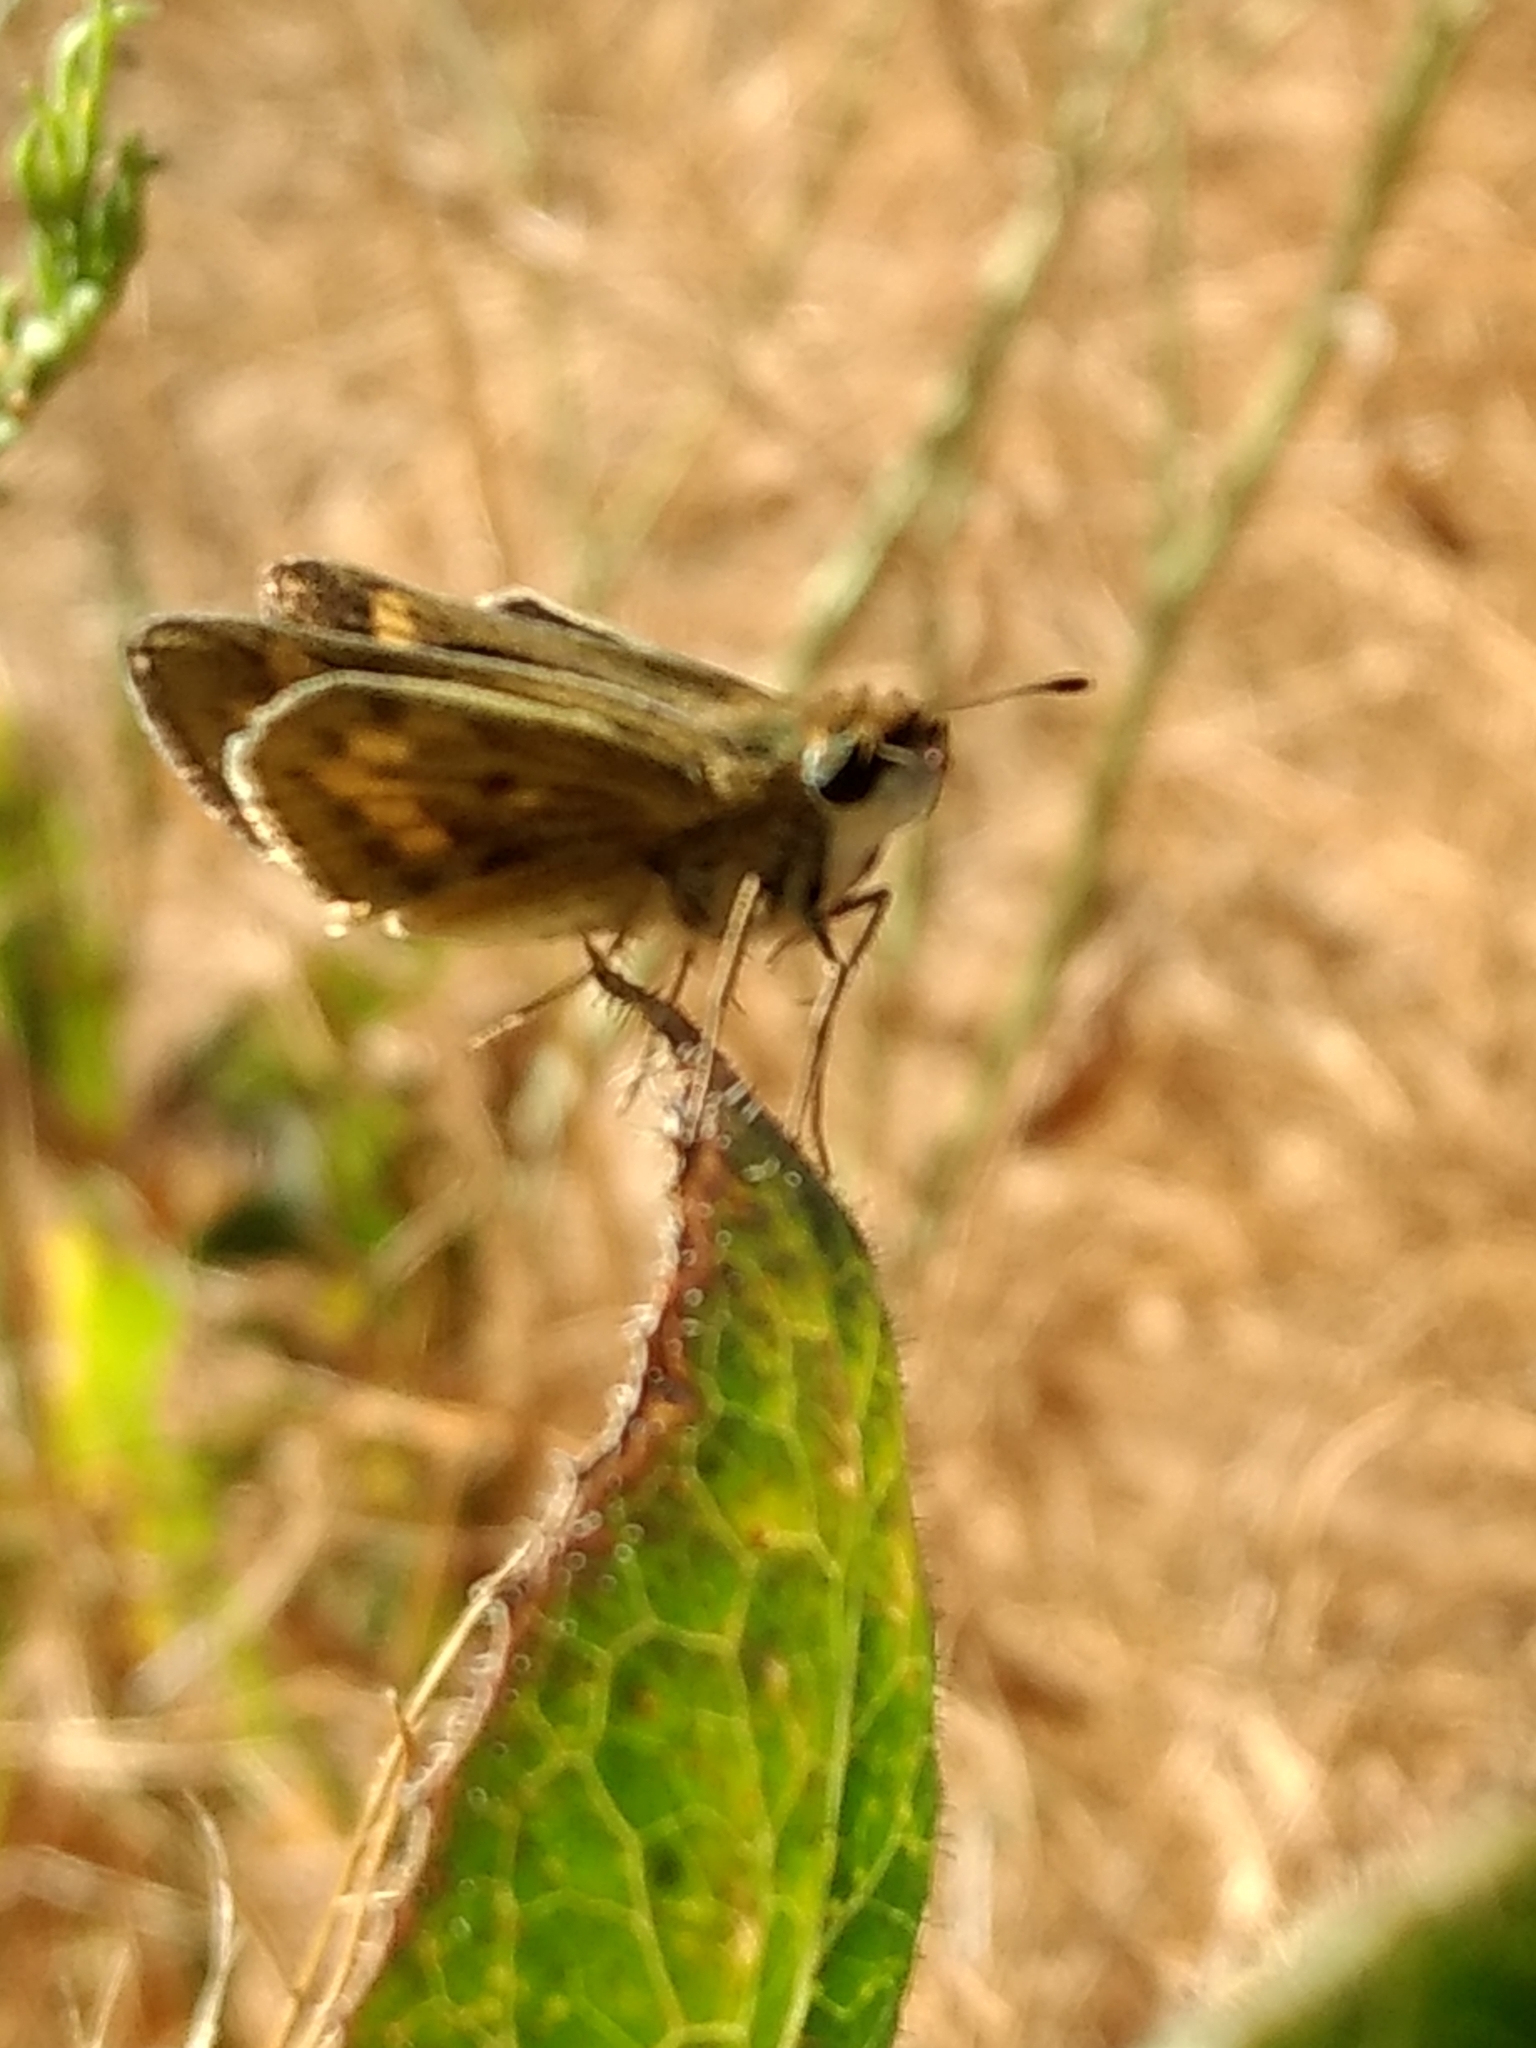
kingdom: Animalia
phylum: Arthropoda
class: Insecta
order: Lepidoptera
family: Hesperiidae
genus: Hylephila
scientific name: Hylephila phyleus
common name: Fiery skipper
